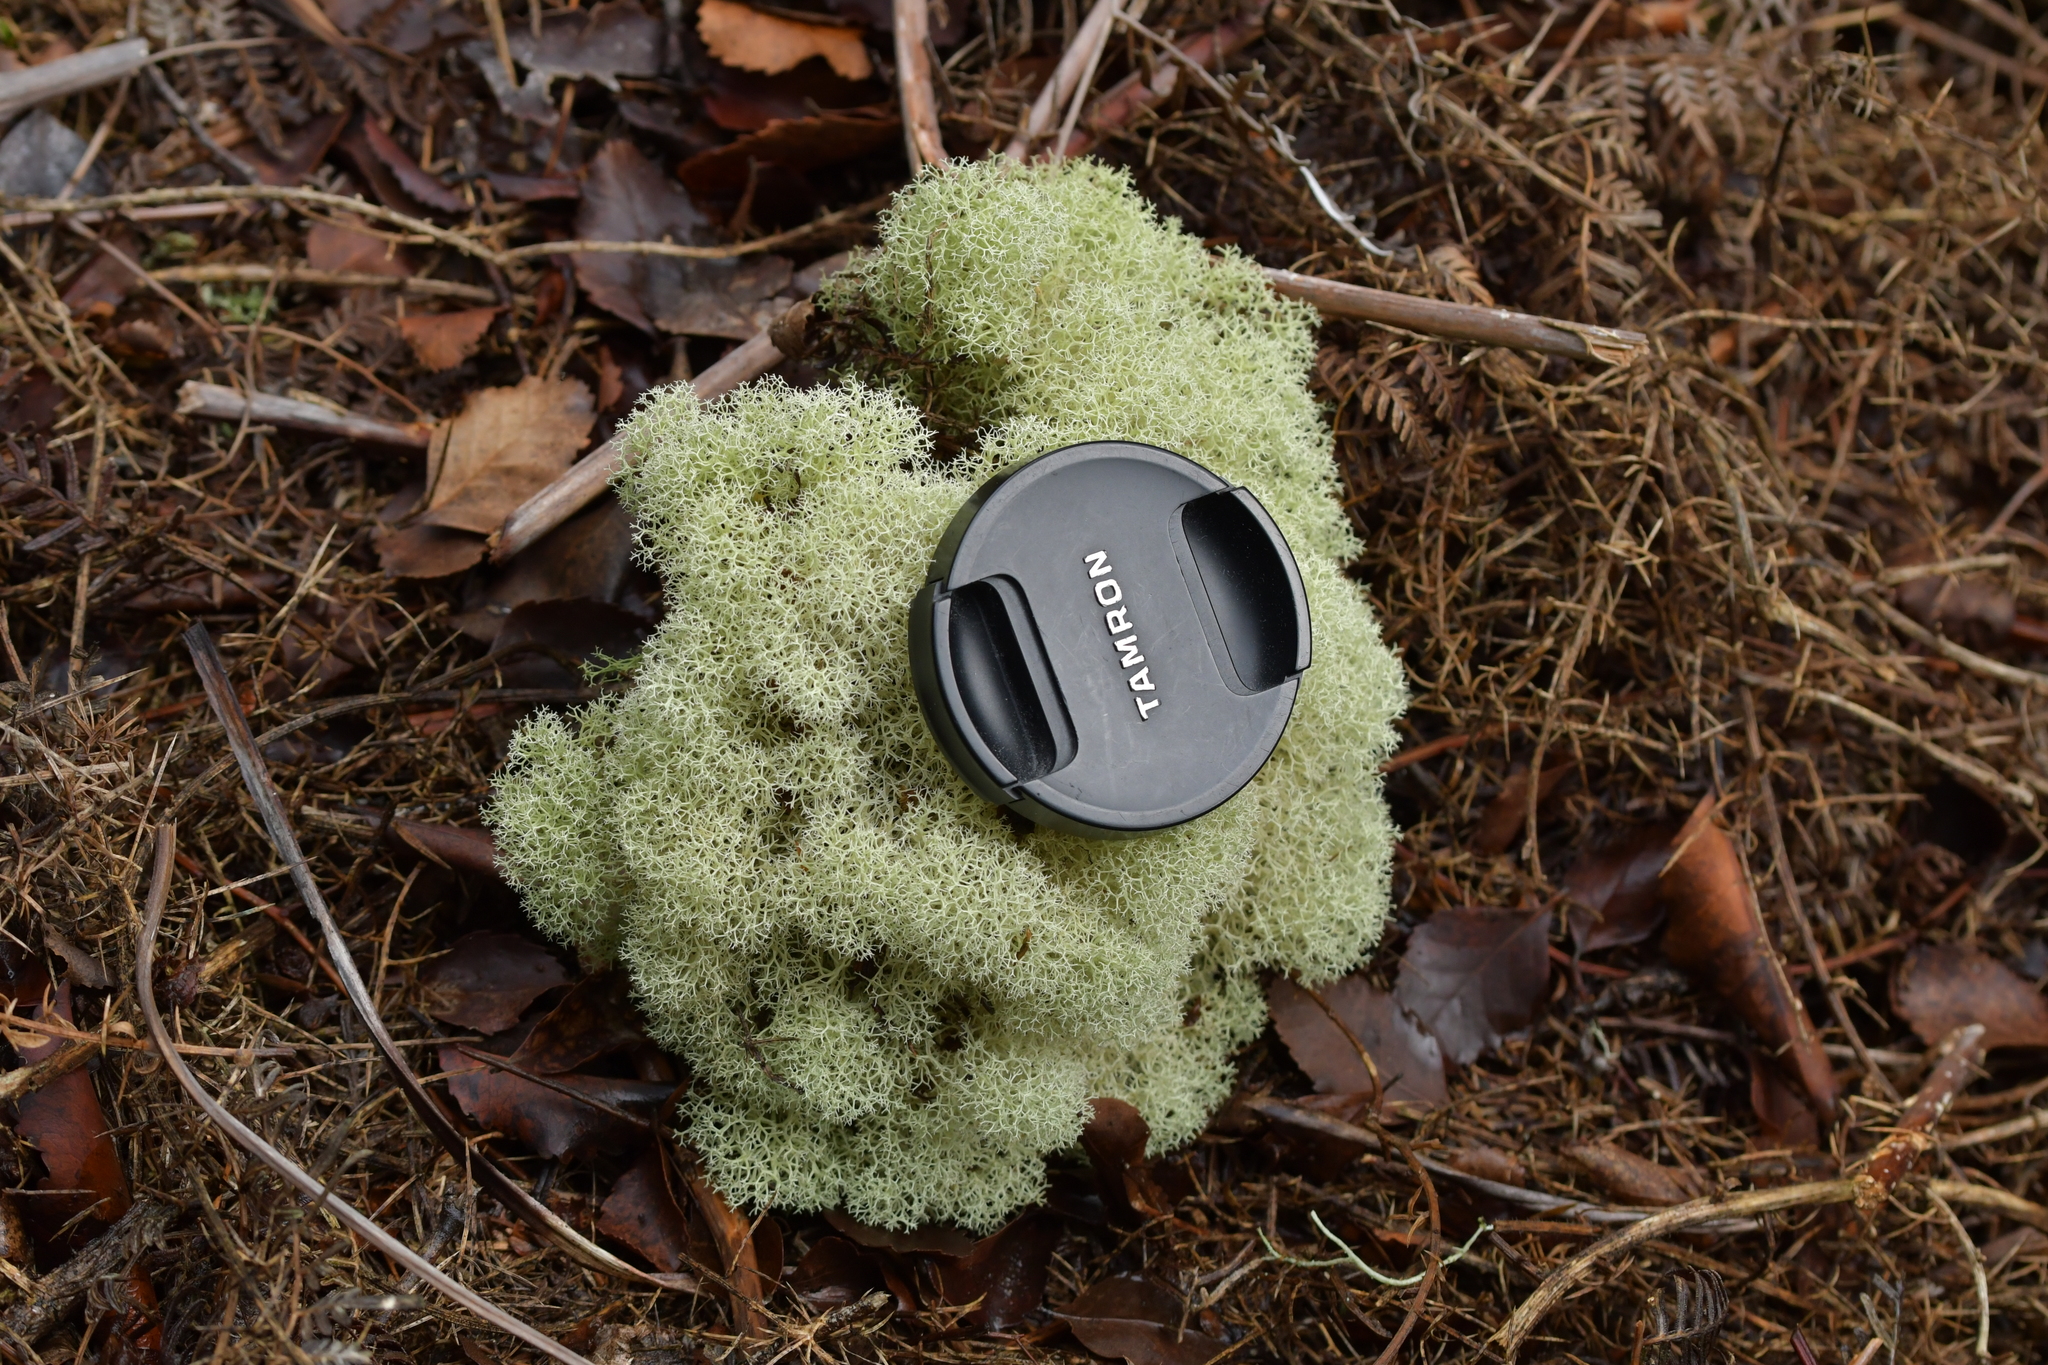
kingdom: Fungi
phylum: Ascomycota
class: Lecanoromycetes
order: Lecanorales
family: Cladoniaceae
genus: Cladonia
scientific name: Cladonia confusa
